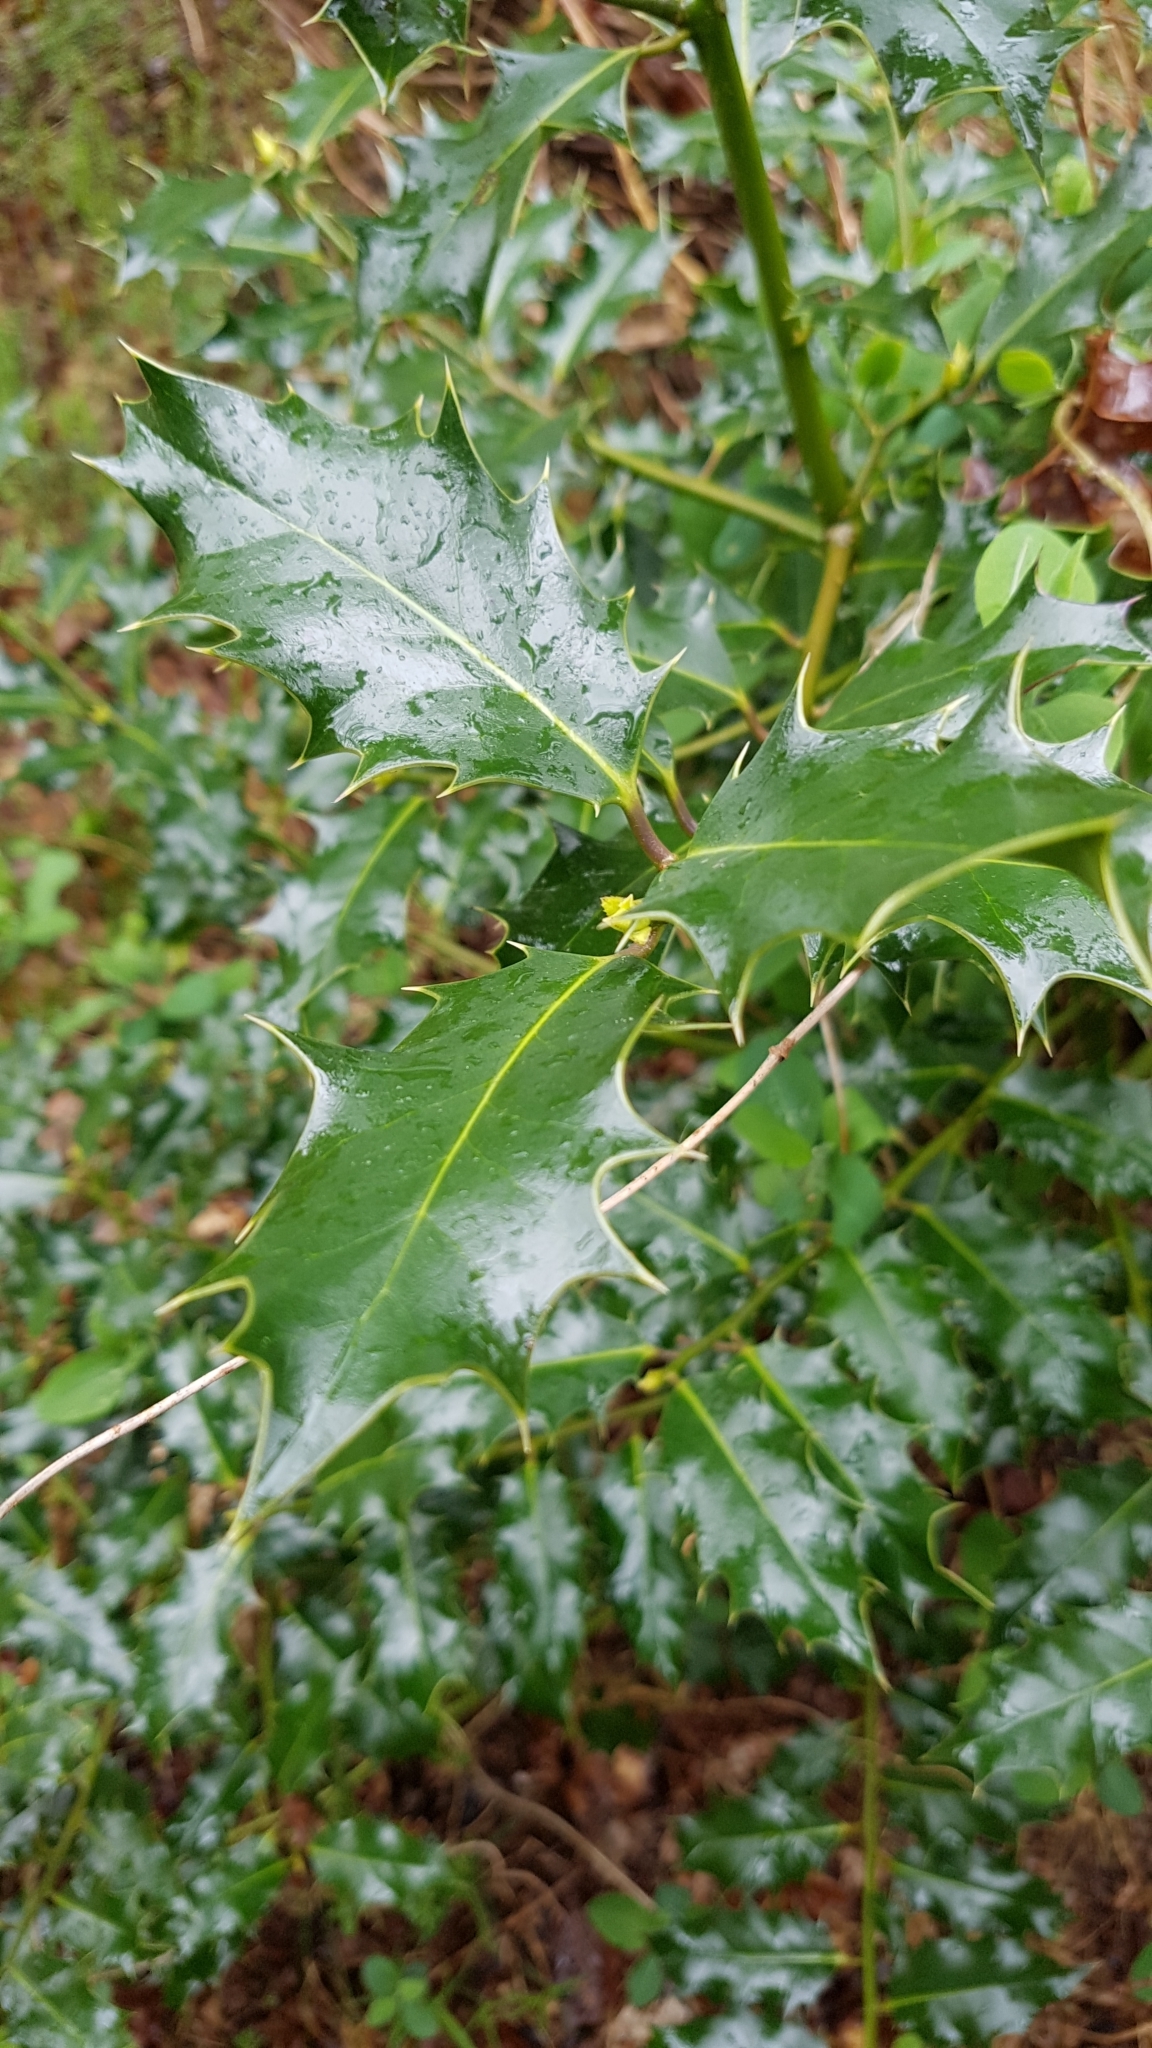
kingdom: Plantae
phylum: Tracheophyta
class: Magnoliopsida
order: Aquifoliales
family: Aquifoliaceae
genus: Ilex
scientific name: Ilex aquifolium
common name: English holly
